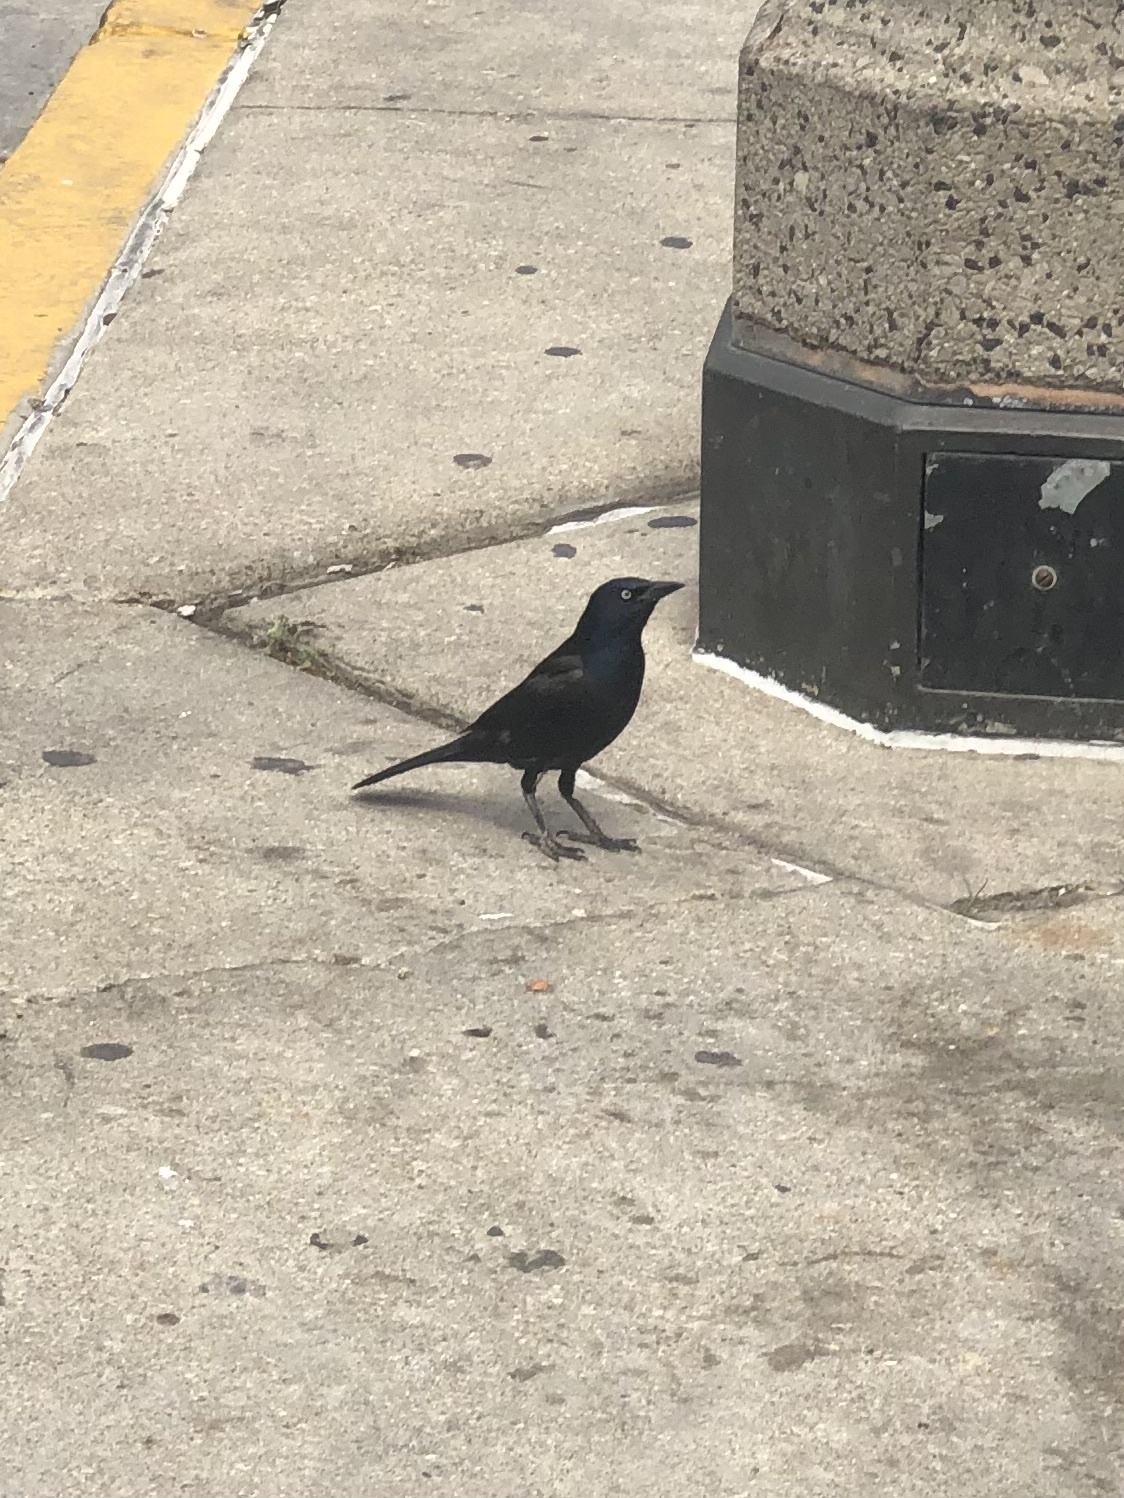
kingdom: Animalia
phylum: Chordata
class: Aves
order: Passeriformes
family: Icteridae
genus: Quiscalus
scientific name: Quiscalus quiscula
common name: Common grackle
